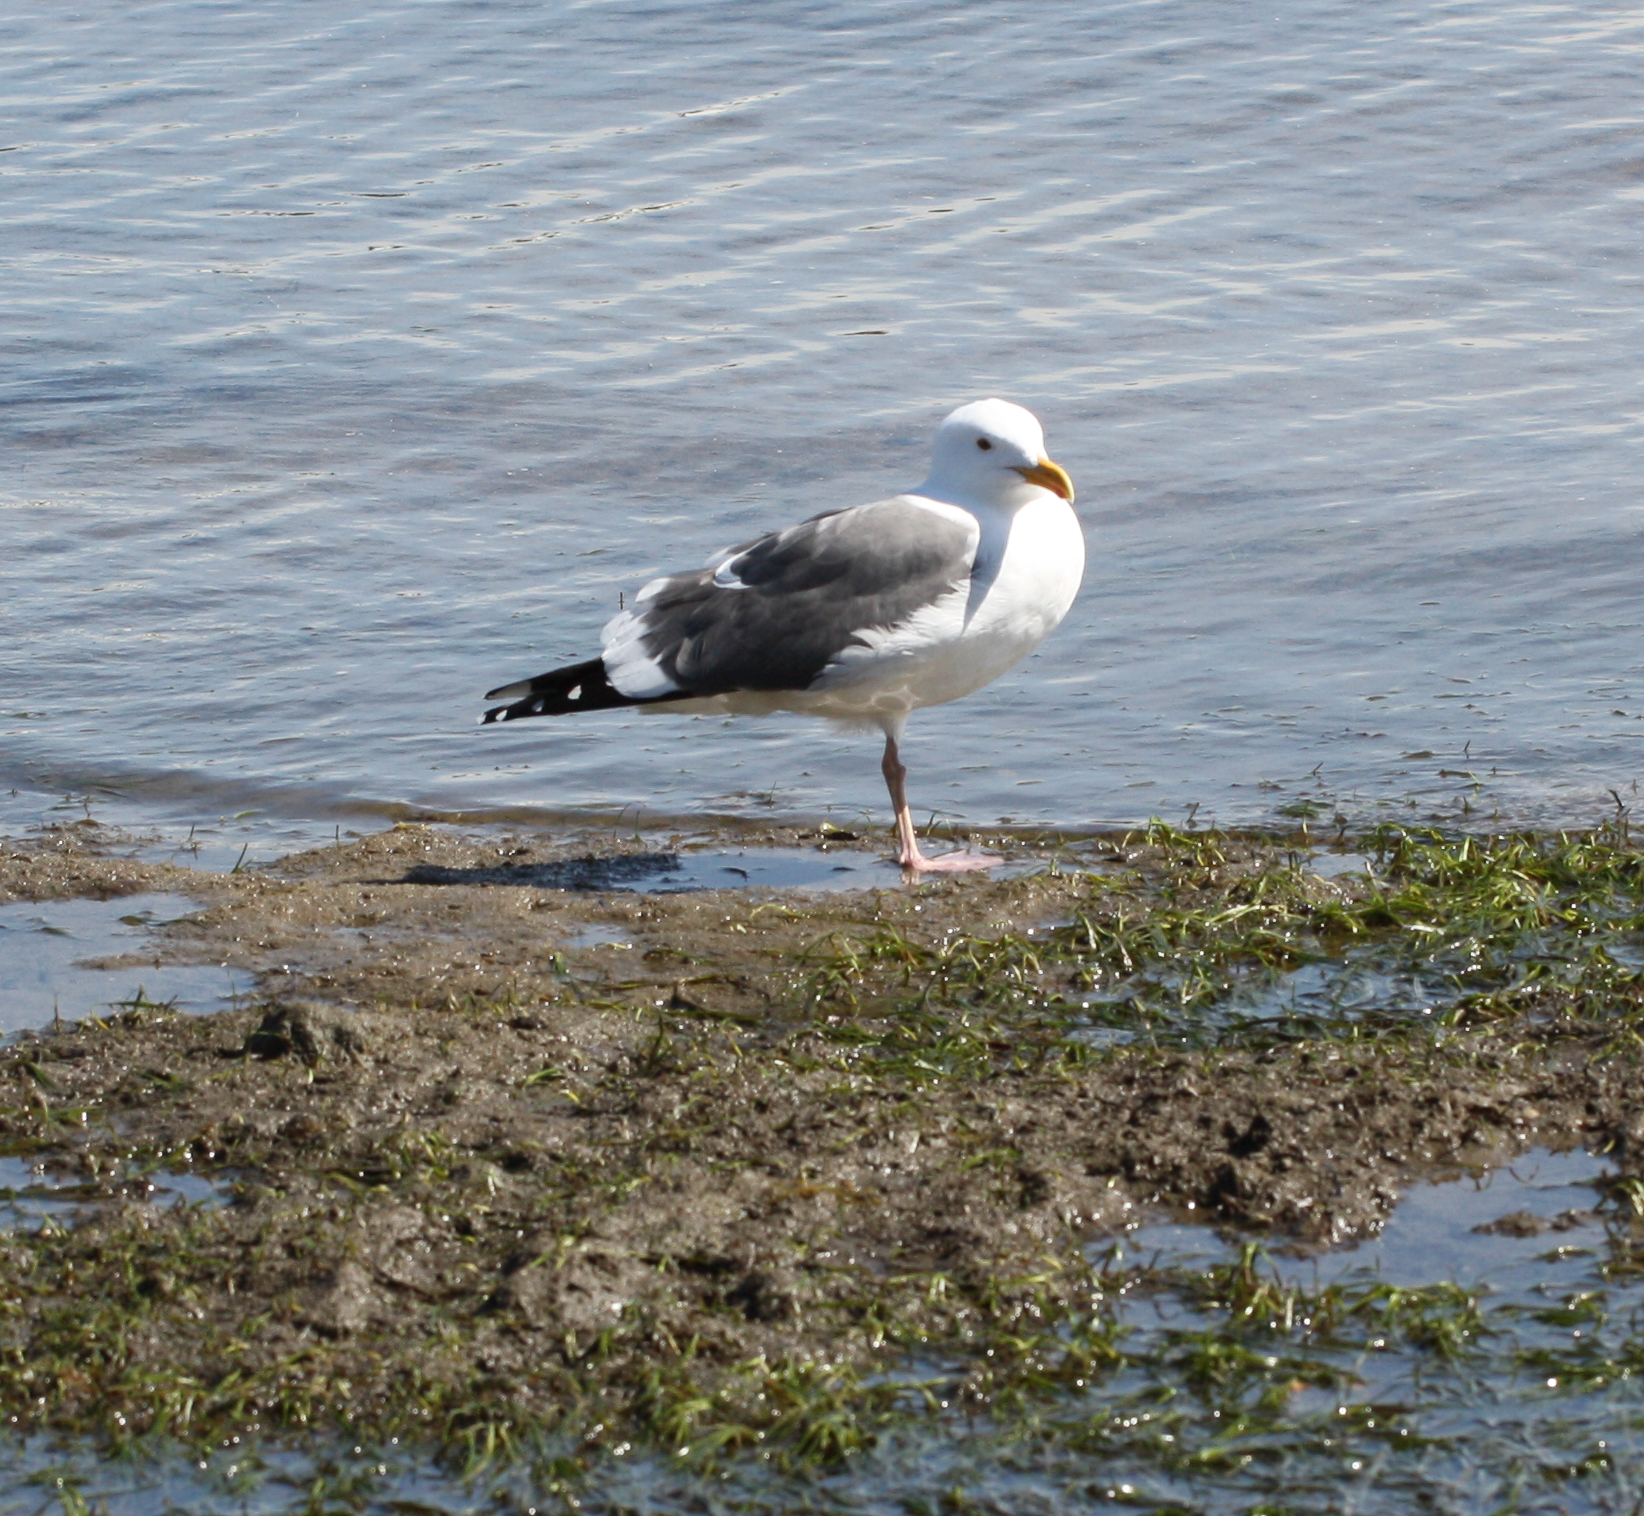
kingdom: Animalia
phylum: Chordata
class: Aves
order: Charadriiformes
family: Laridae
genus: Larus
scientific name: Larus occidentalis
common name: Western gull
